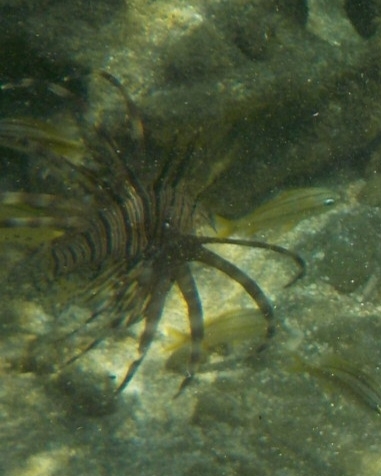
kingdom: Animalia
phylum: Chordata
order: Scorpaeniformes
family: Scorpaenidae
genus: Pterois
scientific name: Pterois volitans
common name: Lionfish
